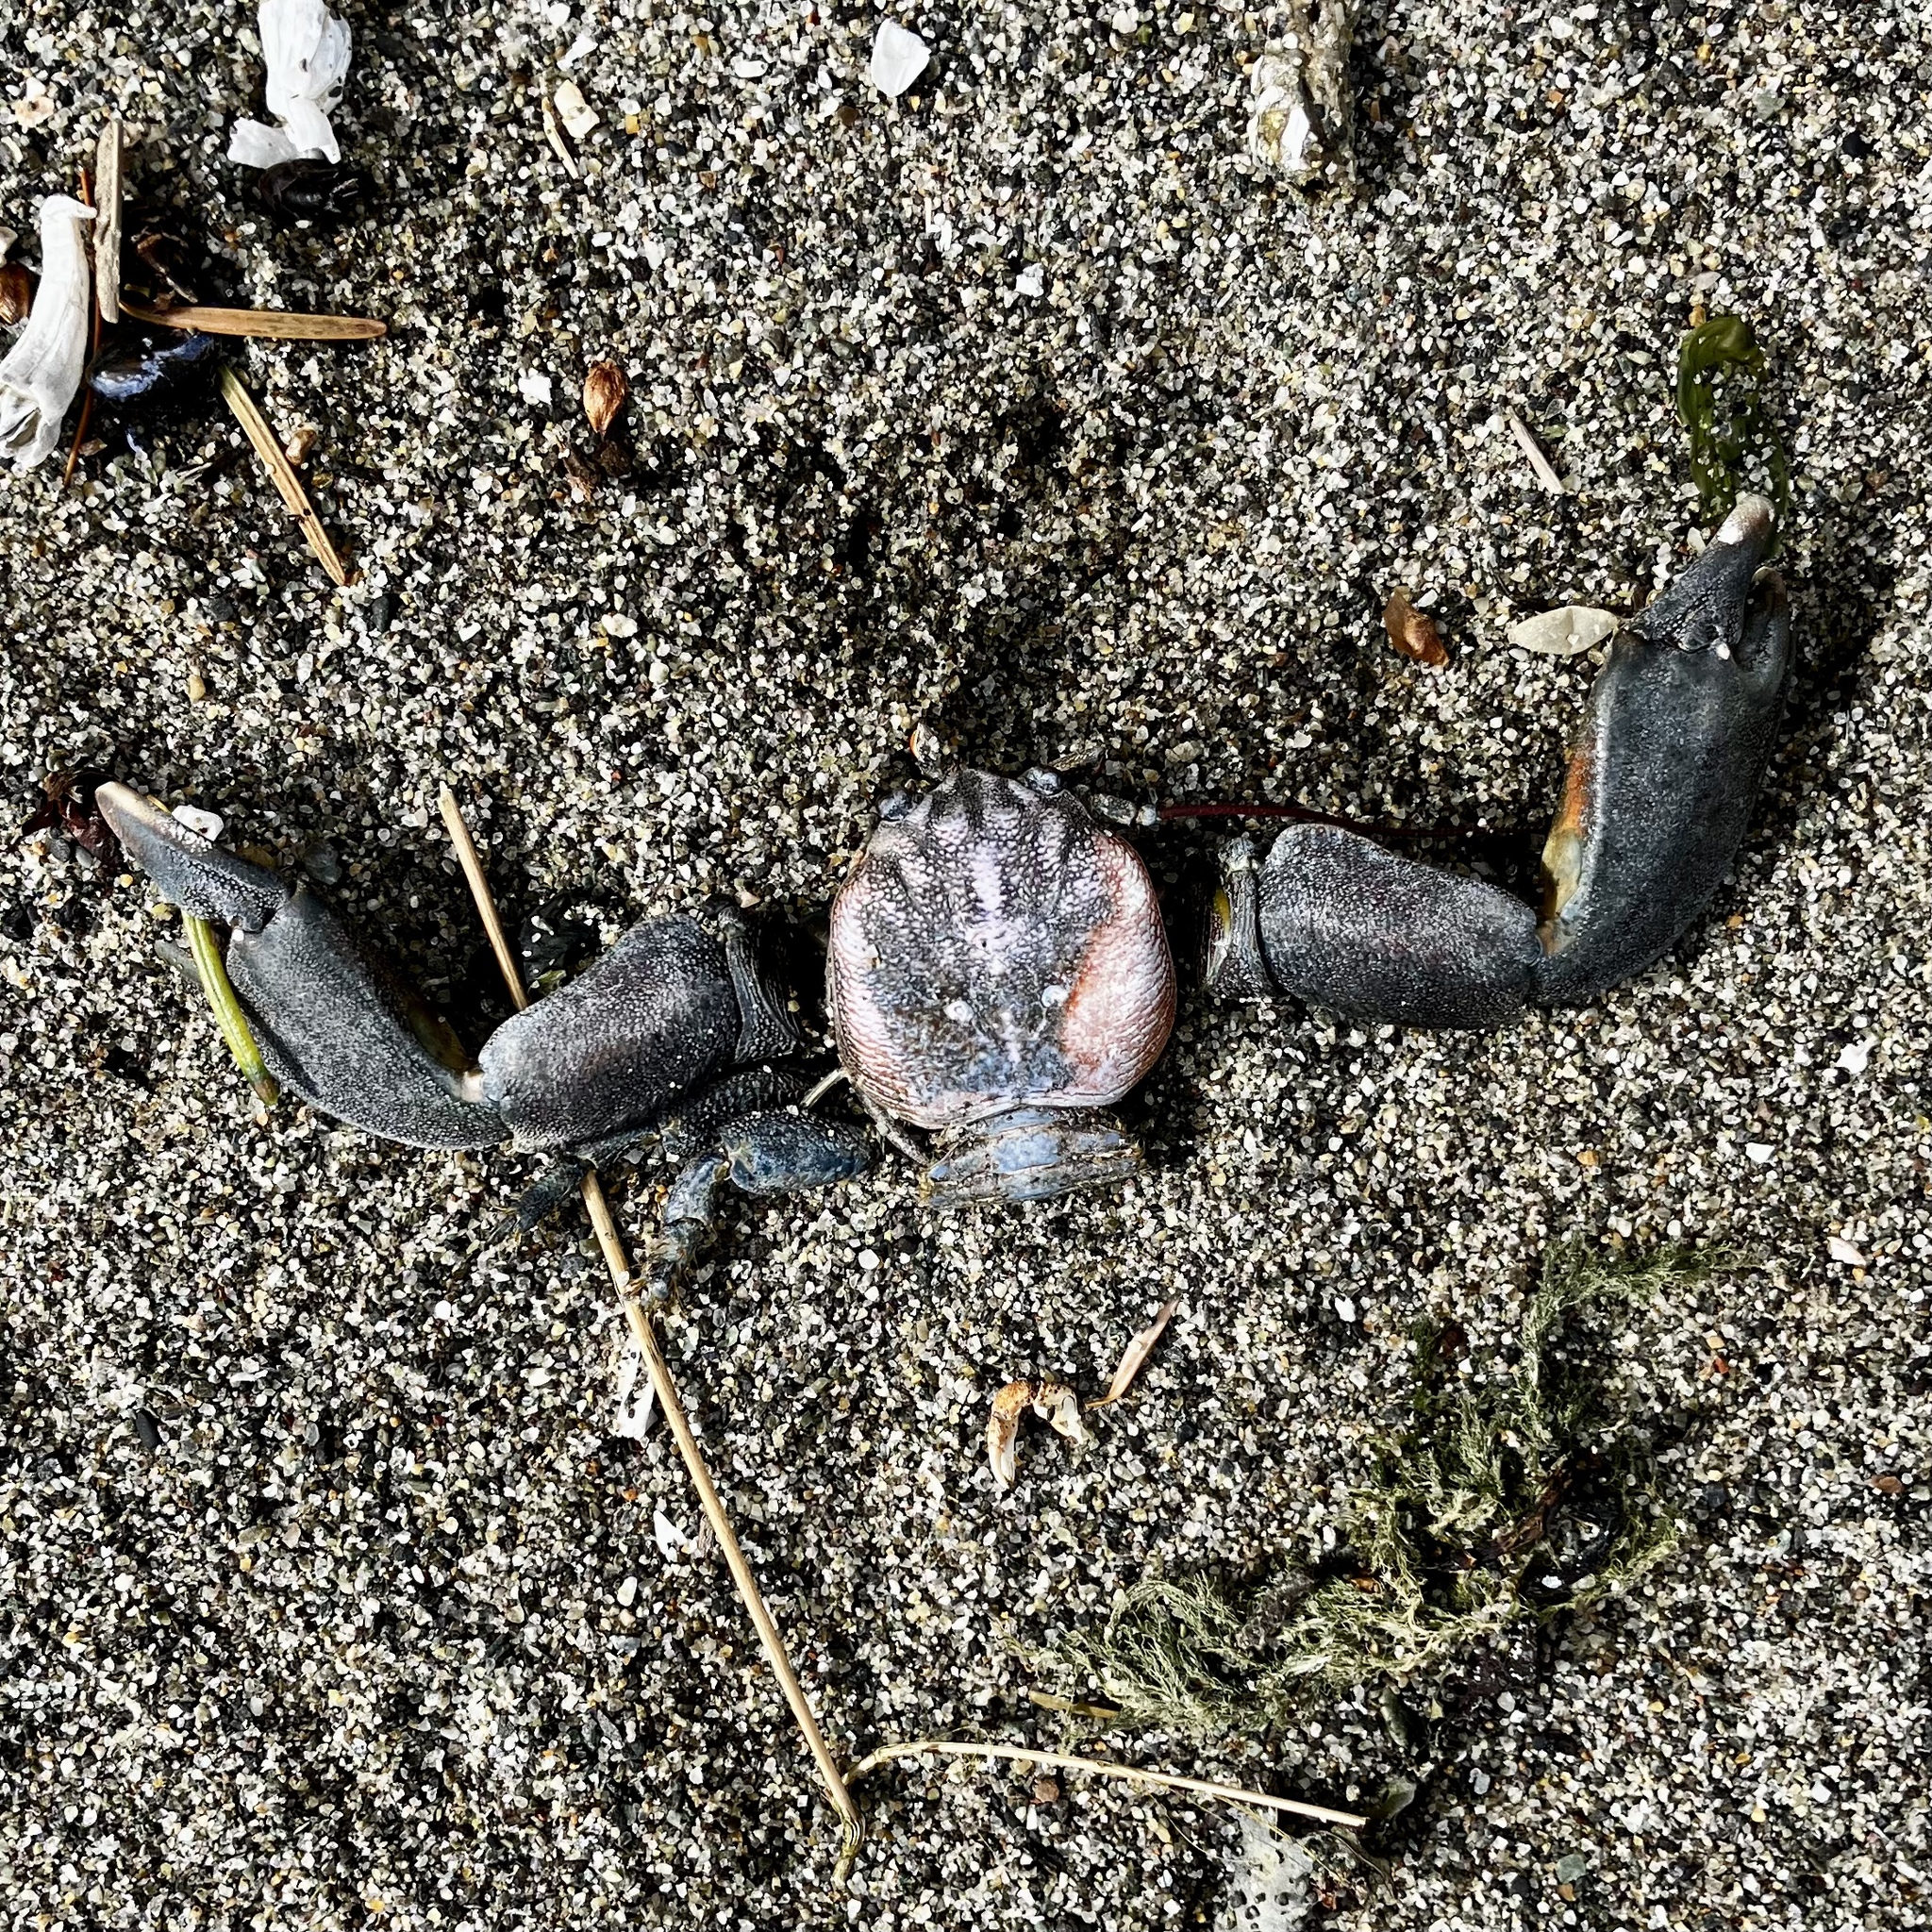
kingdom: Animalia
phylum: Arthropoda
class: Malacostraca
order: Decapoda
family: Porcellanidae
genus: Petrolisthes
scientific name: Petrolisthes cinctipes
